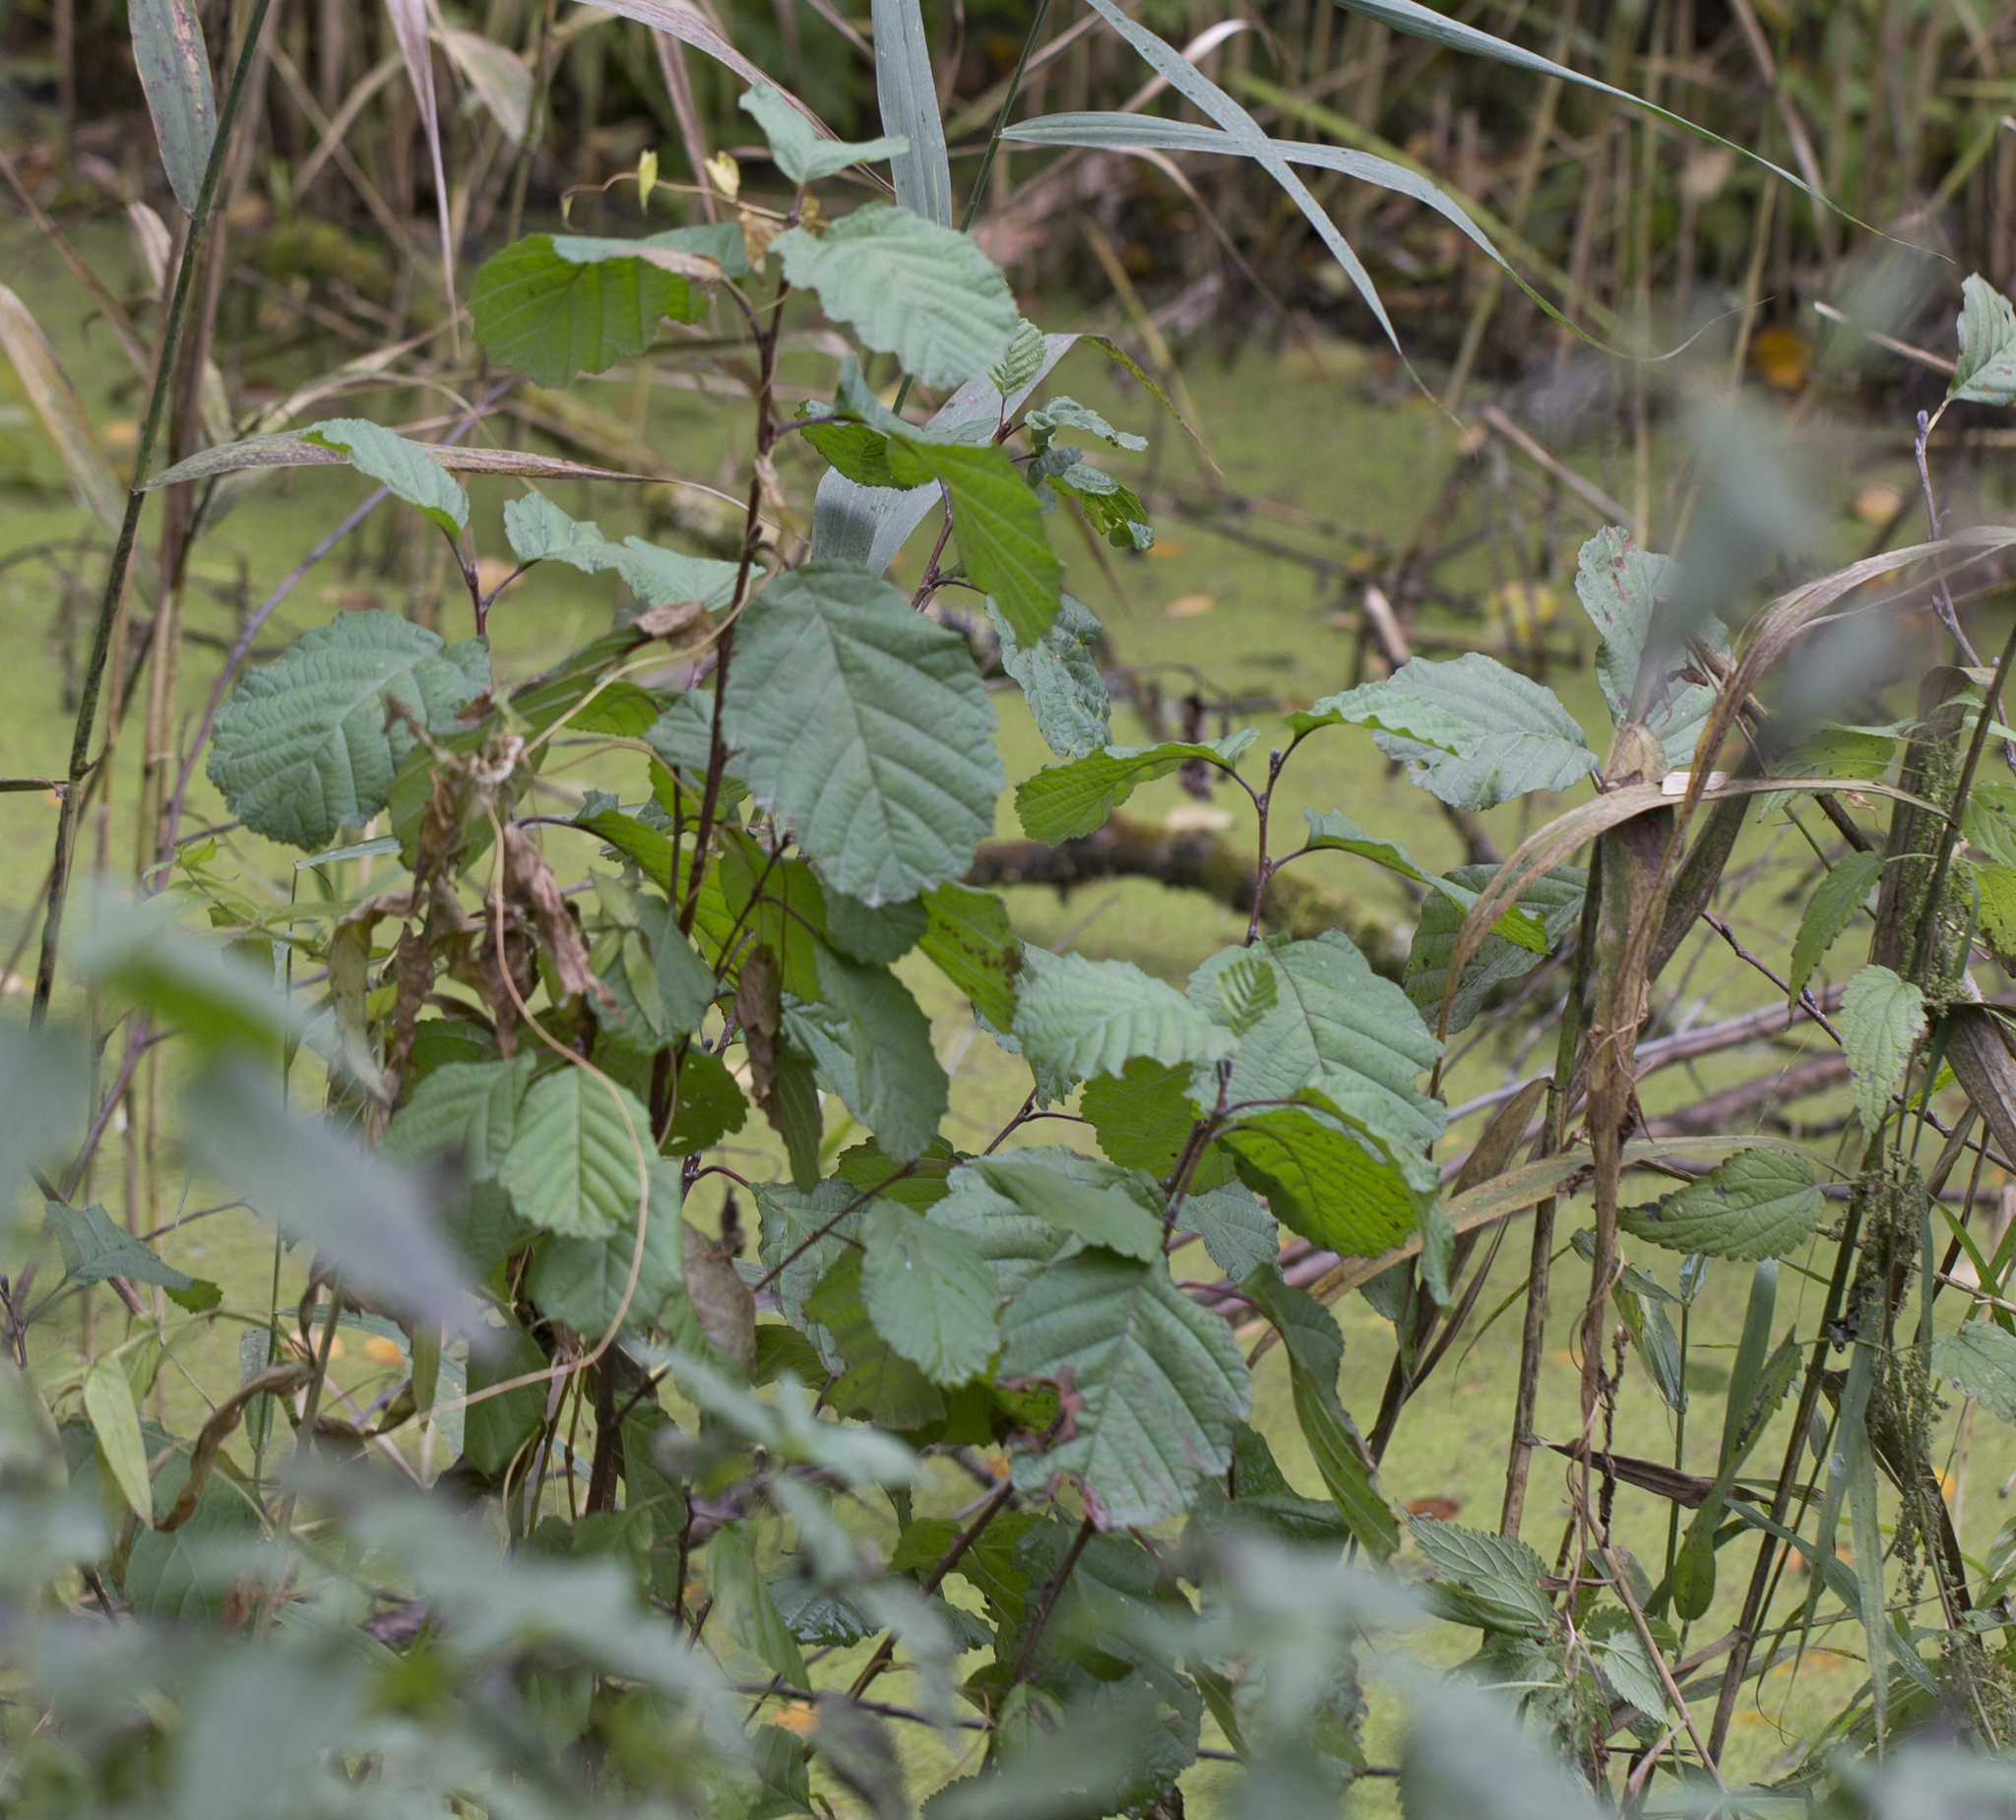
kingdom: Plantae
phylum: Tracheophyta
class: Magnoliopsida
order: Fagales
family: Betulaceae
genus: Alnus
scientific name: Alnus glutinosa
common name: Black alder
